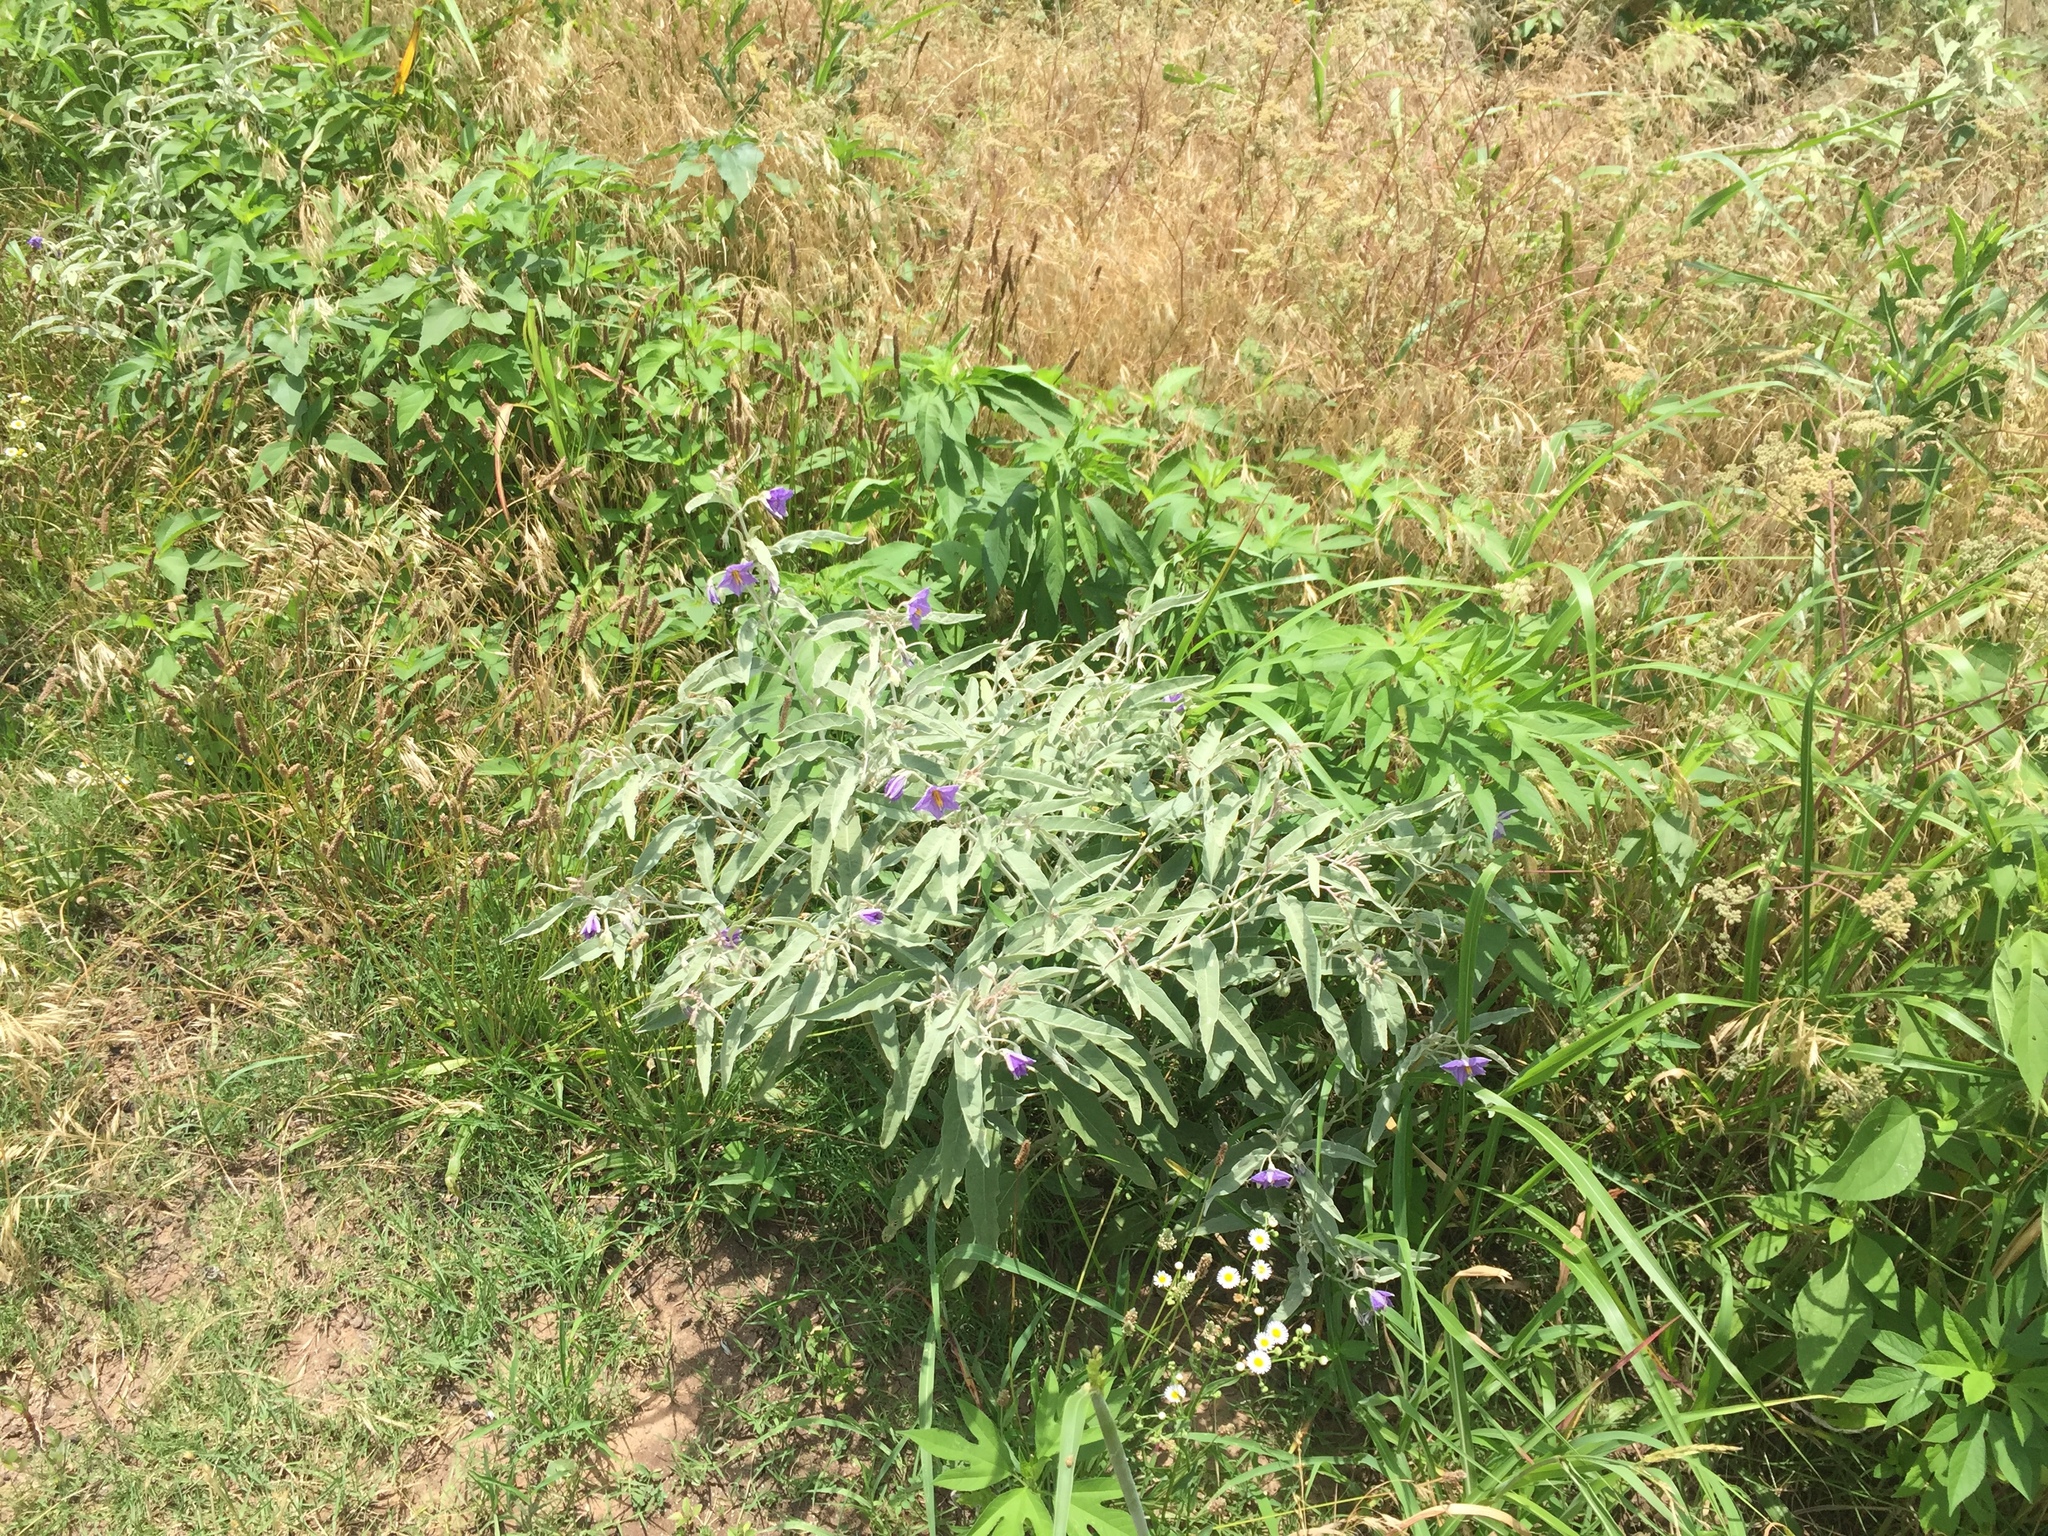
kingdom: Plantae
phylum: Tracheophyta
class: Magnoliopsida
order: Solanales
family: Solanaceae
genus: Solanum
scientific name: Solanum elaeagnifolium
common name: Silverleaf nightshade
